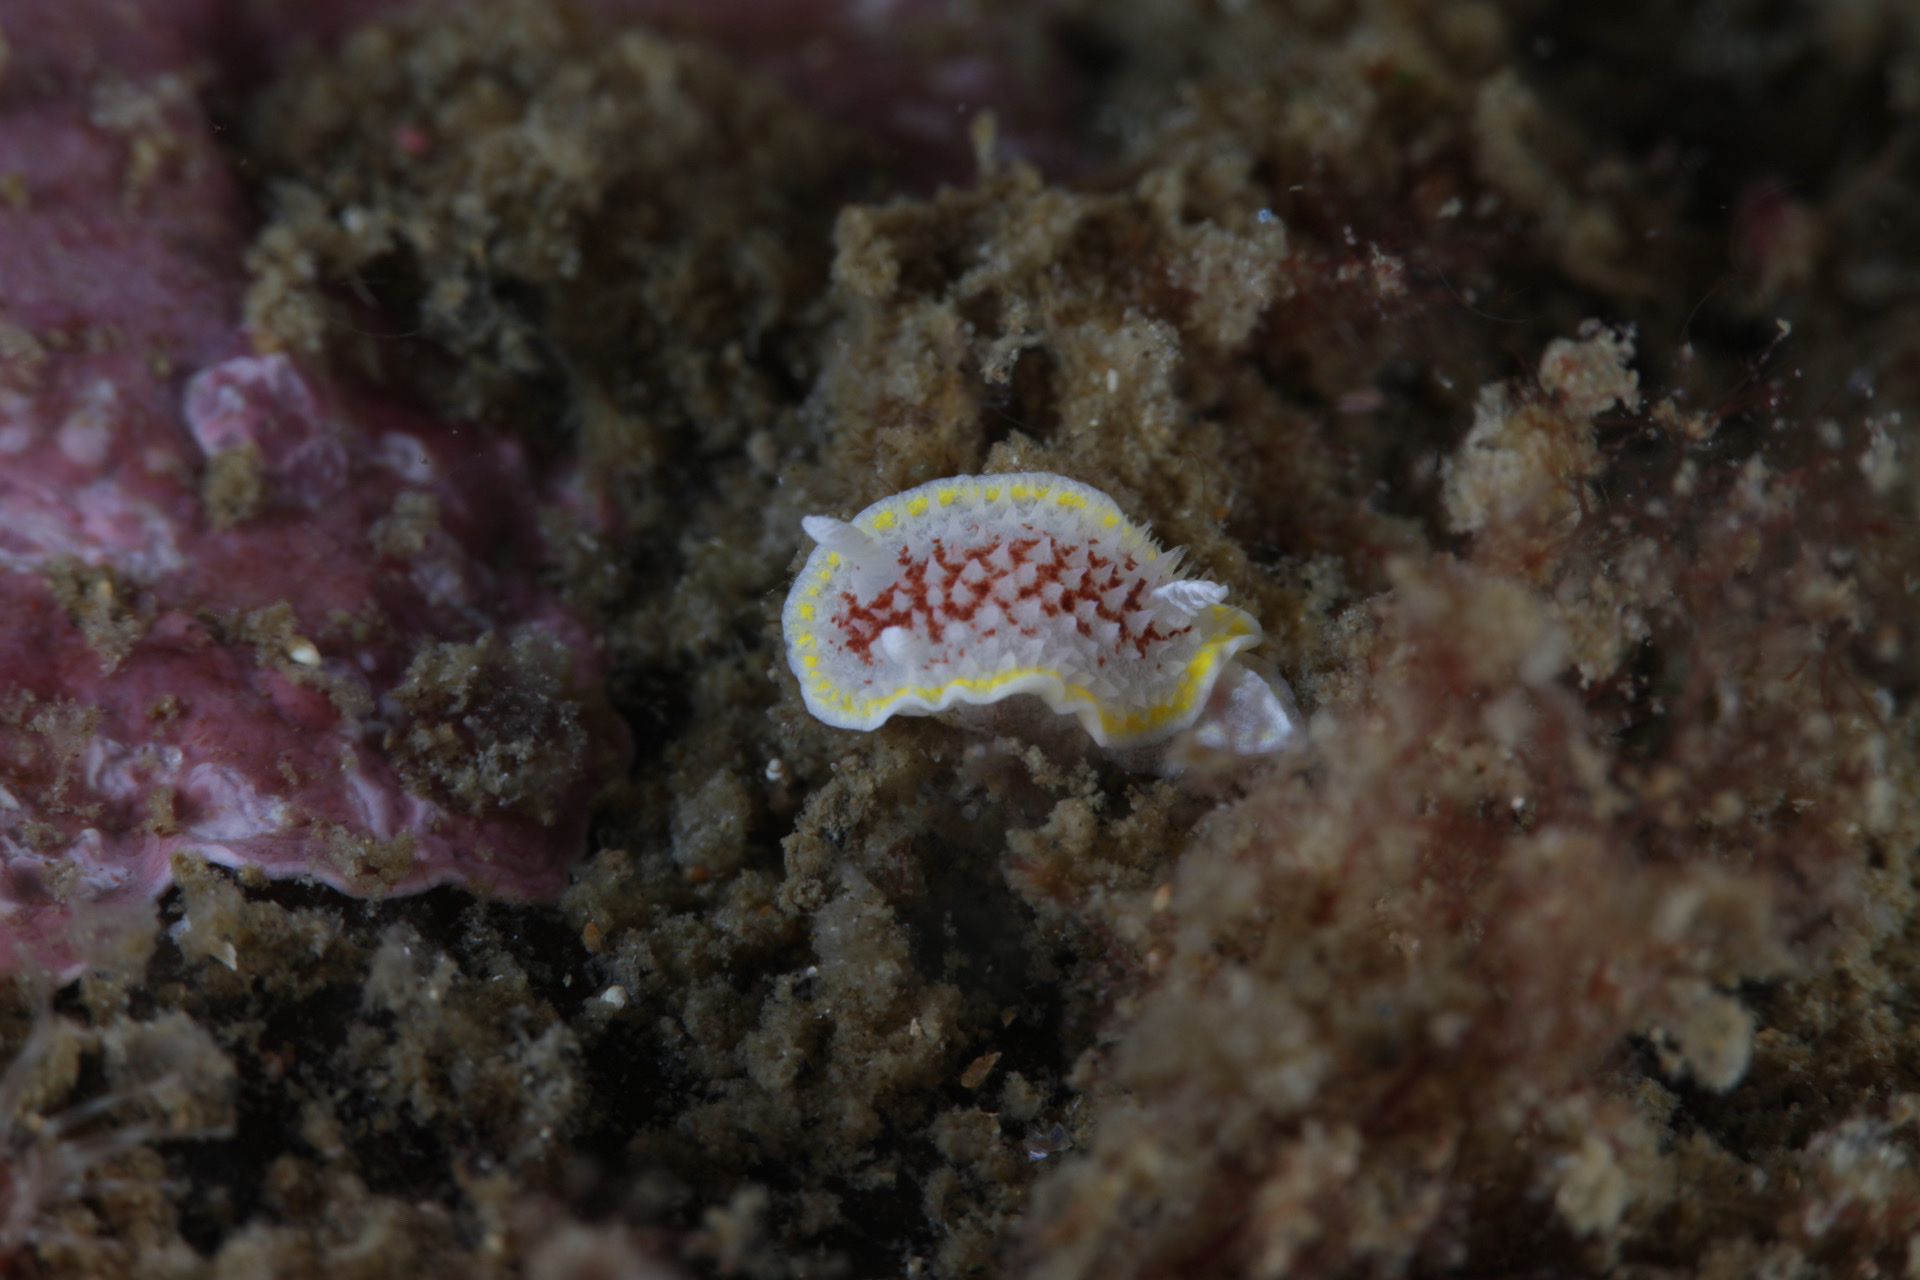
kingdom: Animalia
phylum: Mollusca
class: Gastropoda
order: Nudibranchia
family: Calycidorididae
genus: Diaphorodoris
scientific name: Diaphorodoris luteocincta
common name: Fried egg nudibranch
